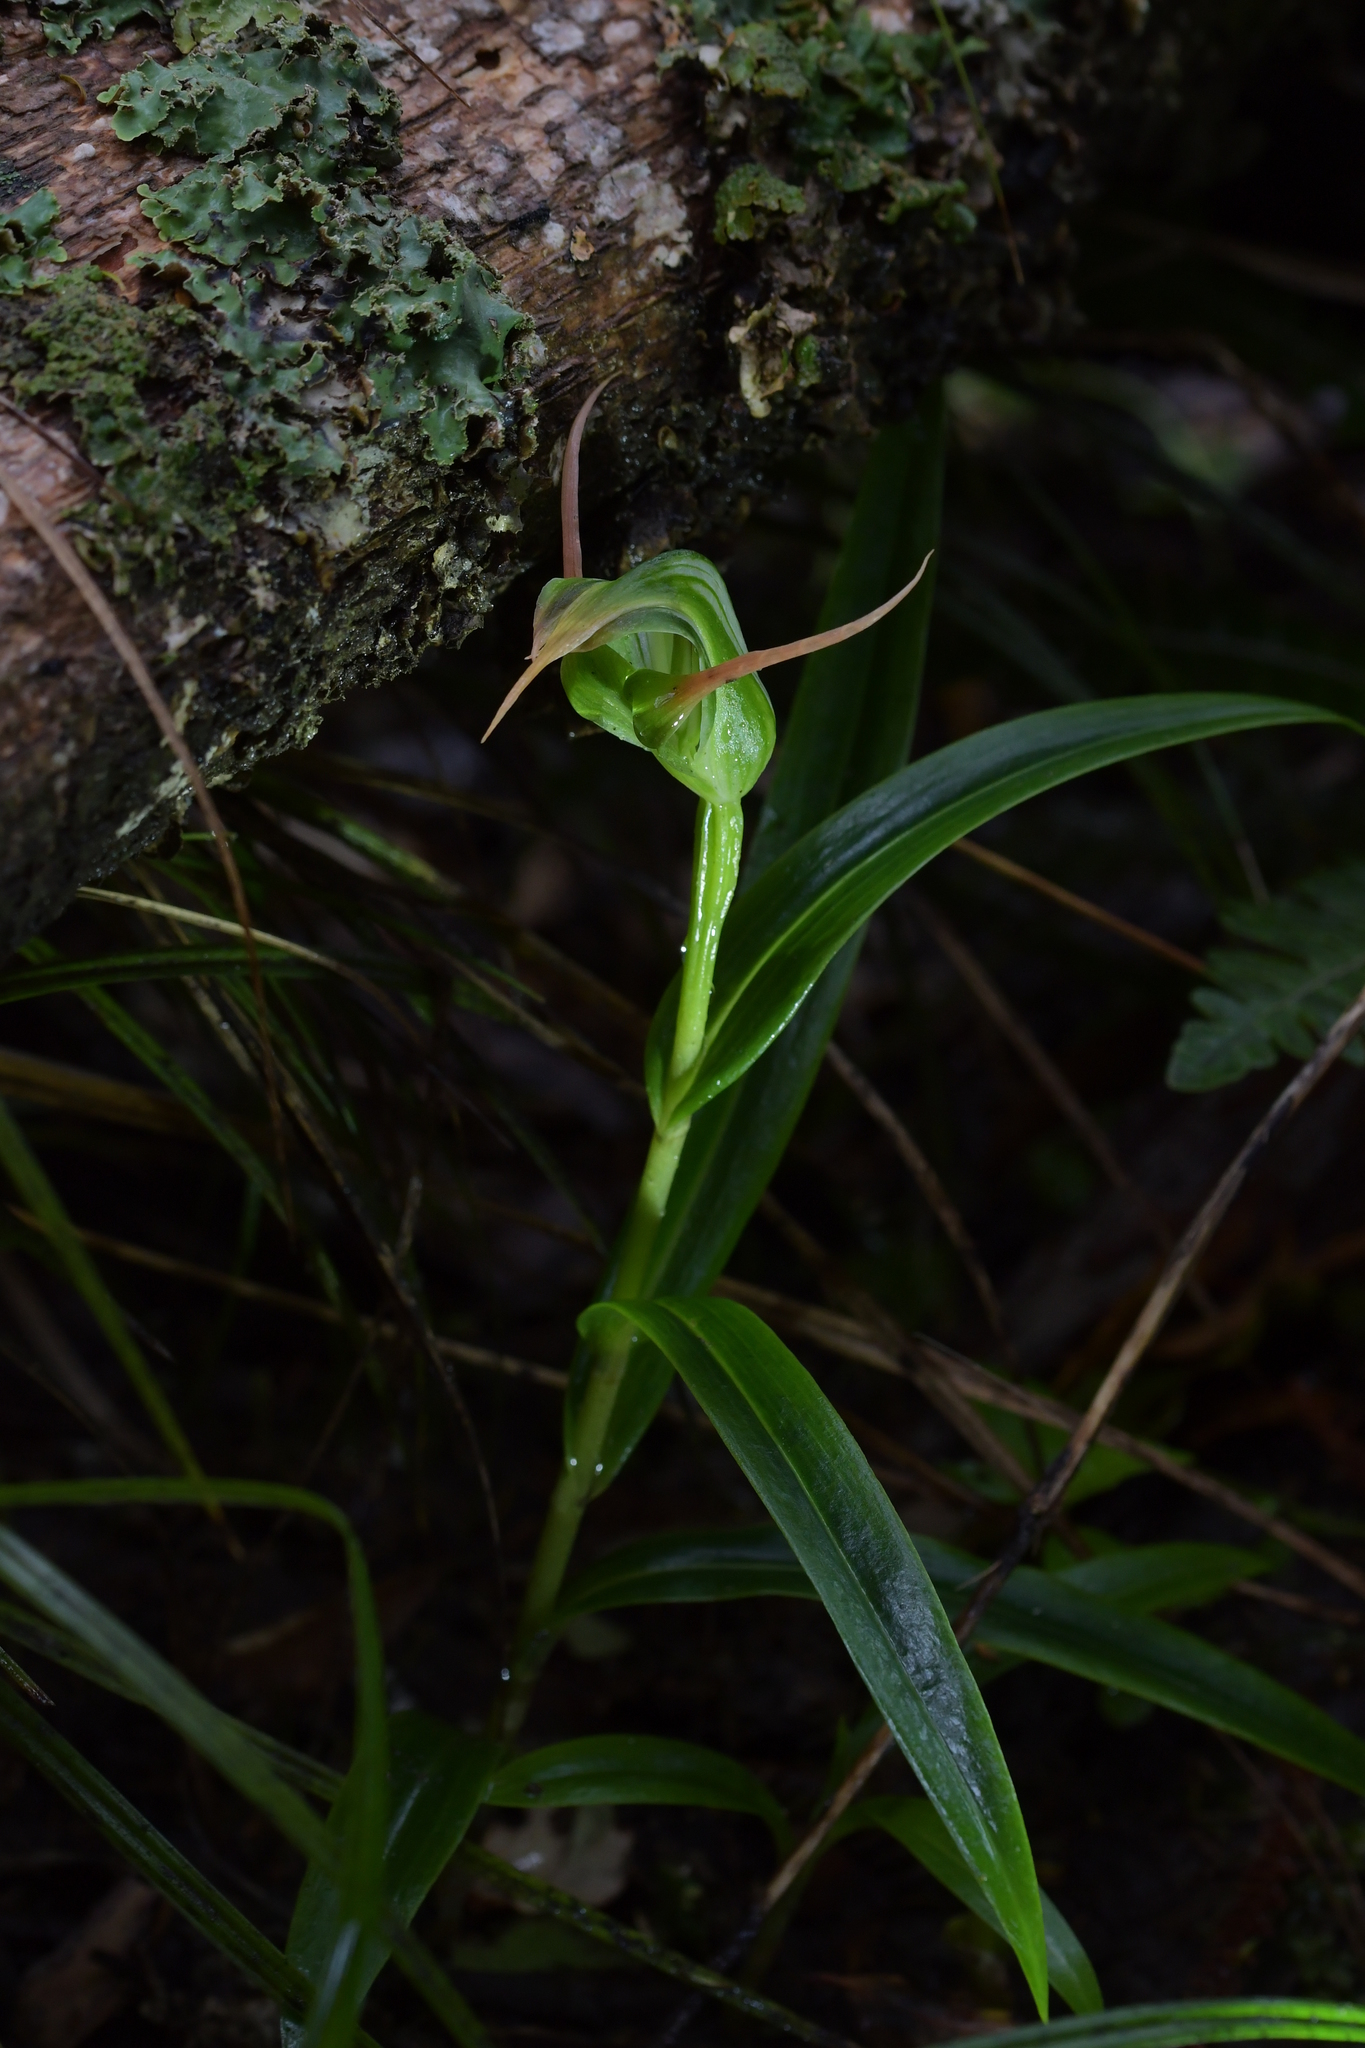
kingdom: Plantae
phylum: Tracheophyta
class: Liliopsida
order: Asparagales
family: Orchidaceae
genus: Pterostylis
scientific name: Pterostylis banksii
